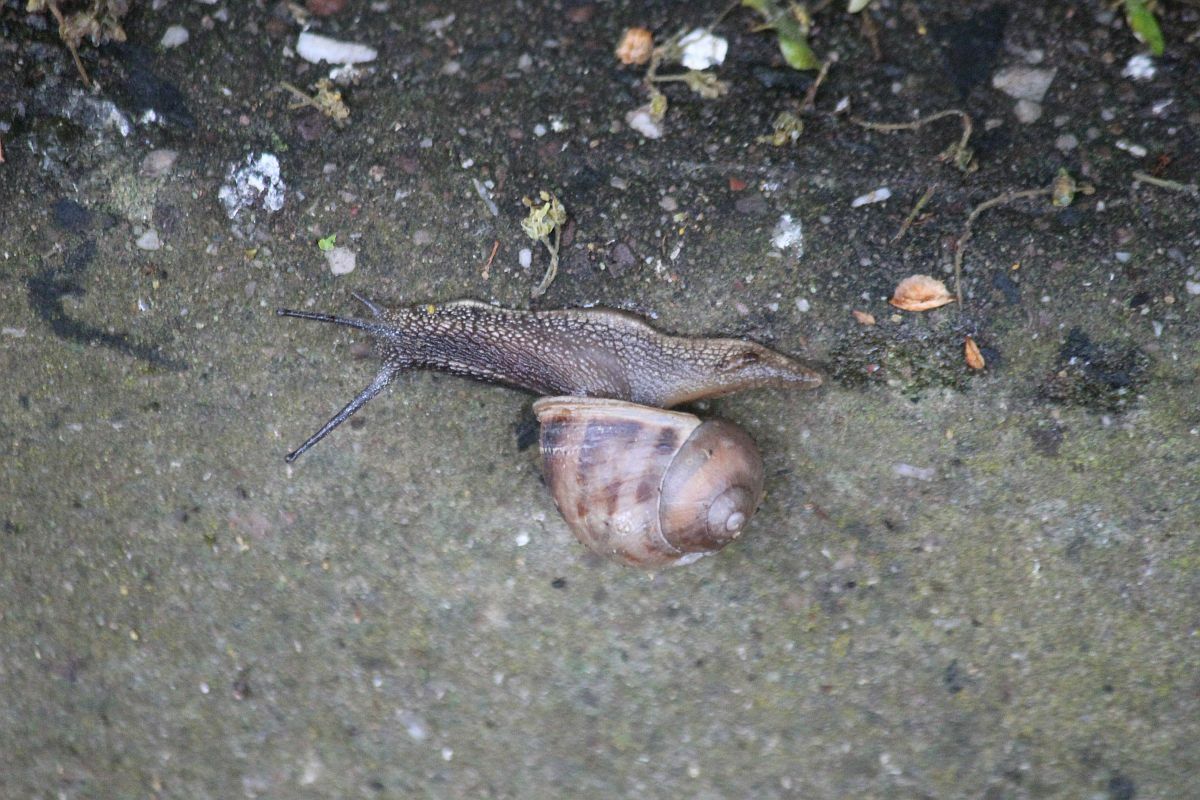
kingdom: Animalia
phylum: Mollusca
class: Gastropoda
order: Stylommatophora
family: Helicidae
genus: Cornu
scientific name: Cornu aspersum
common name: Brown garden snail
